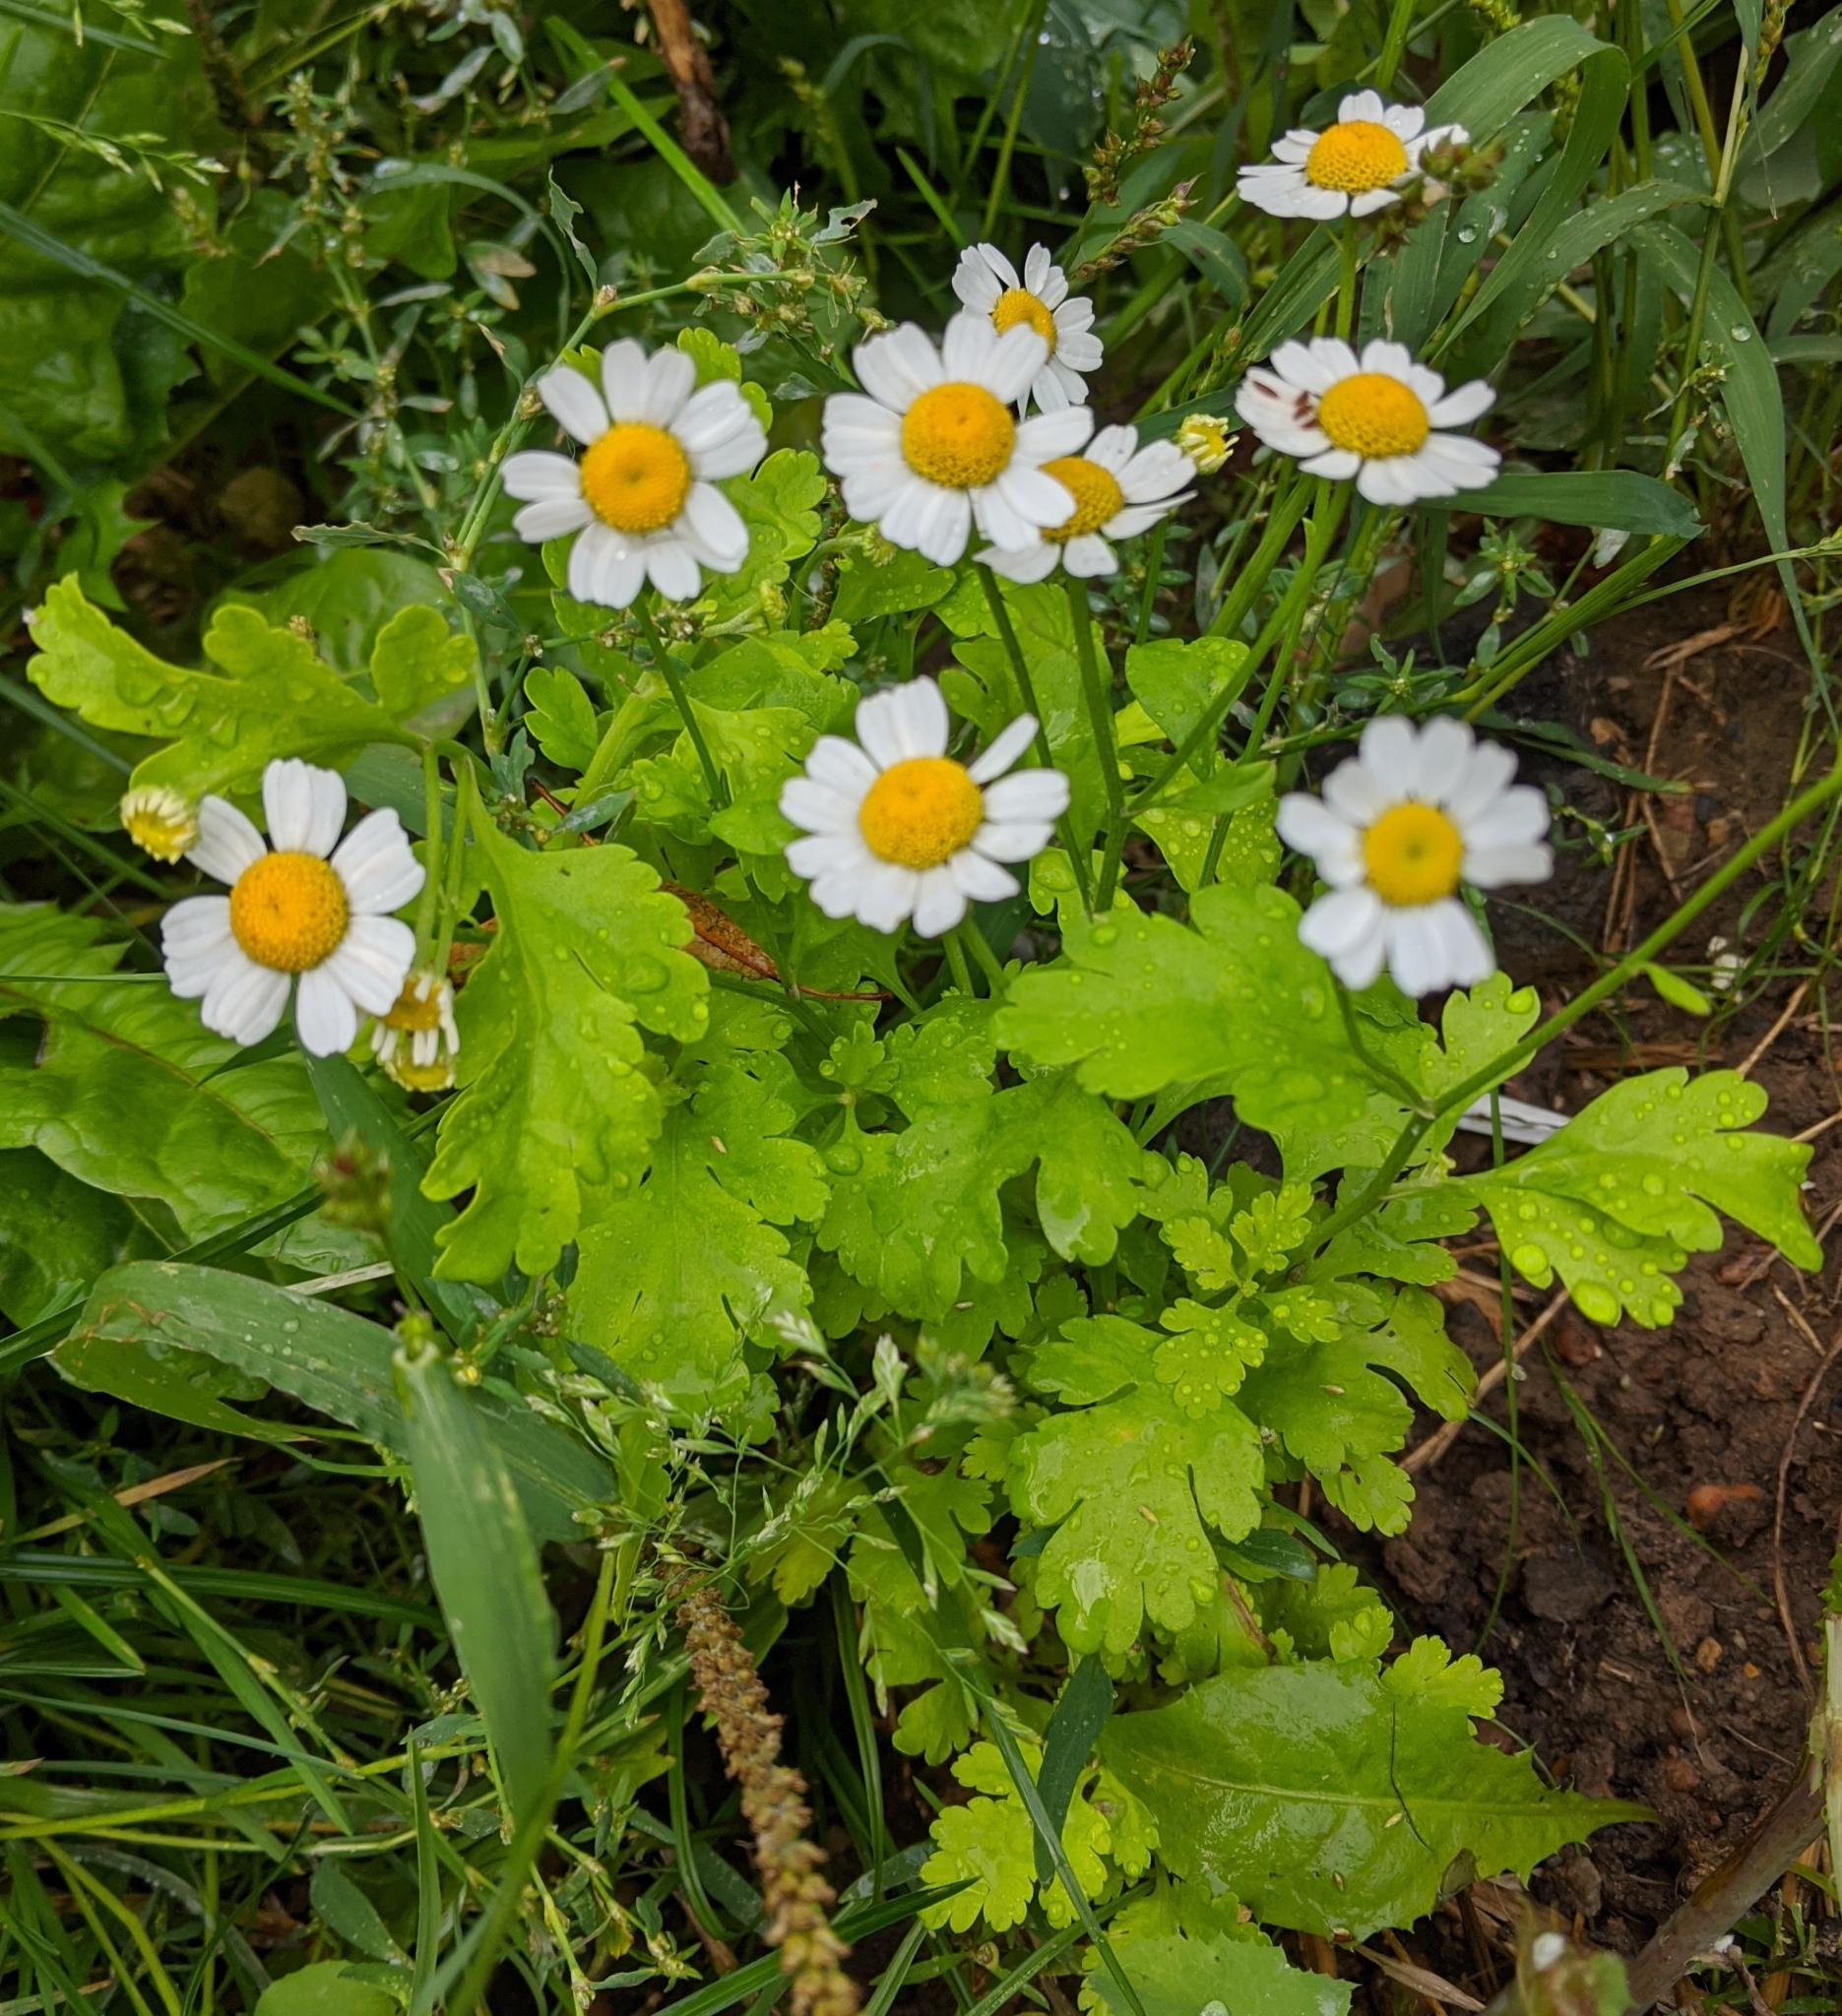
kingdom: Plantae
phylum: Tracheophyta
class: Magnoliopsida
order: Asterales
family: Asteraceae
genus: Tanacetum
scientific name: Tanacetum parthenium
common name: Feverfew
